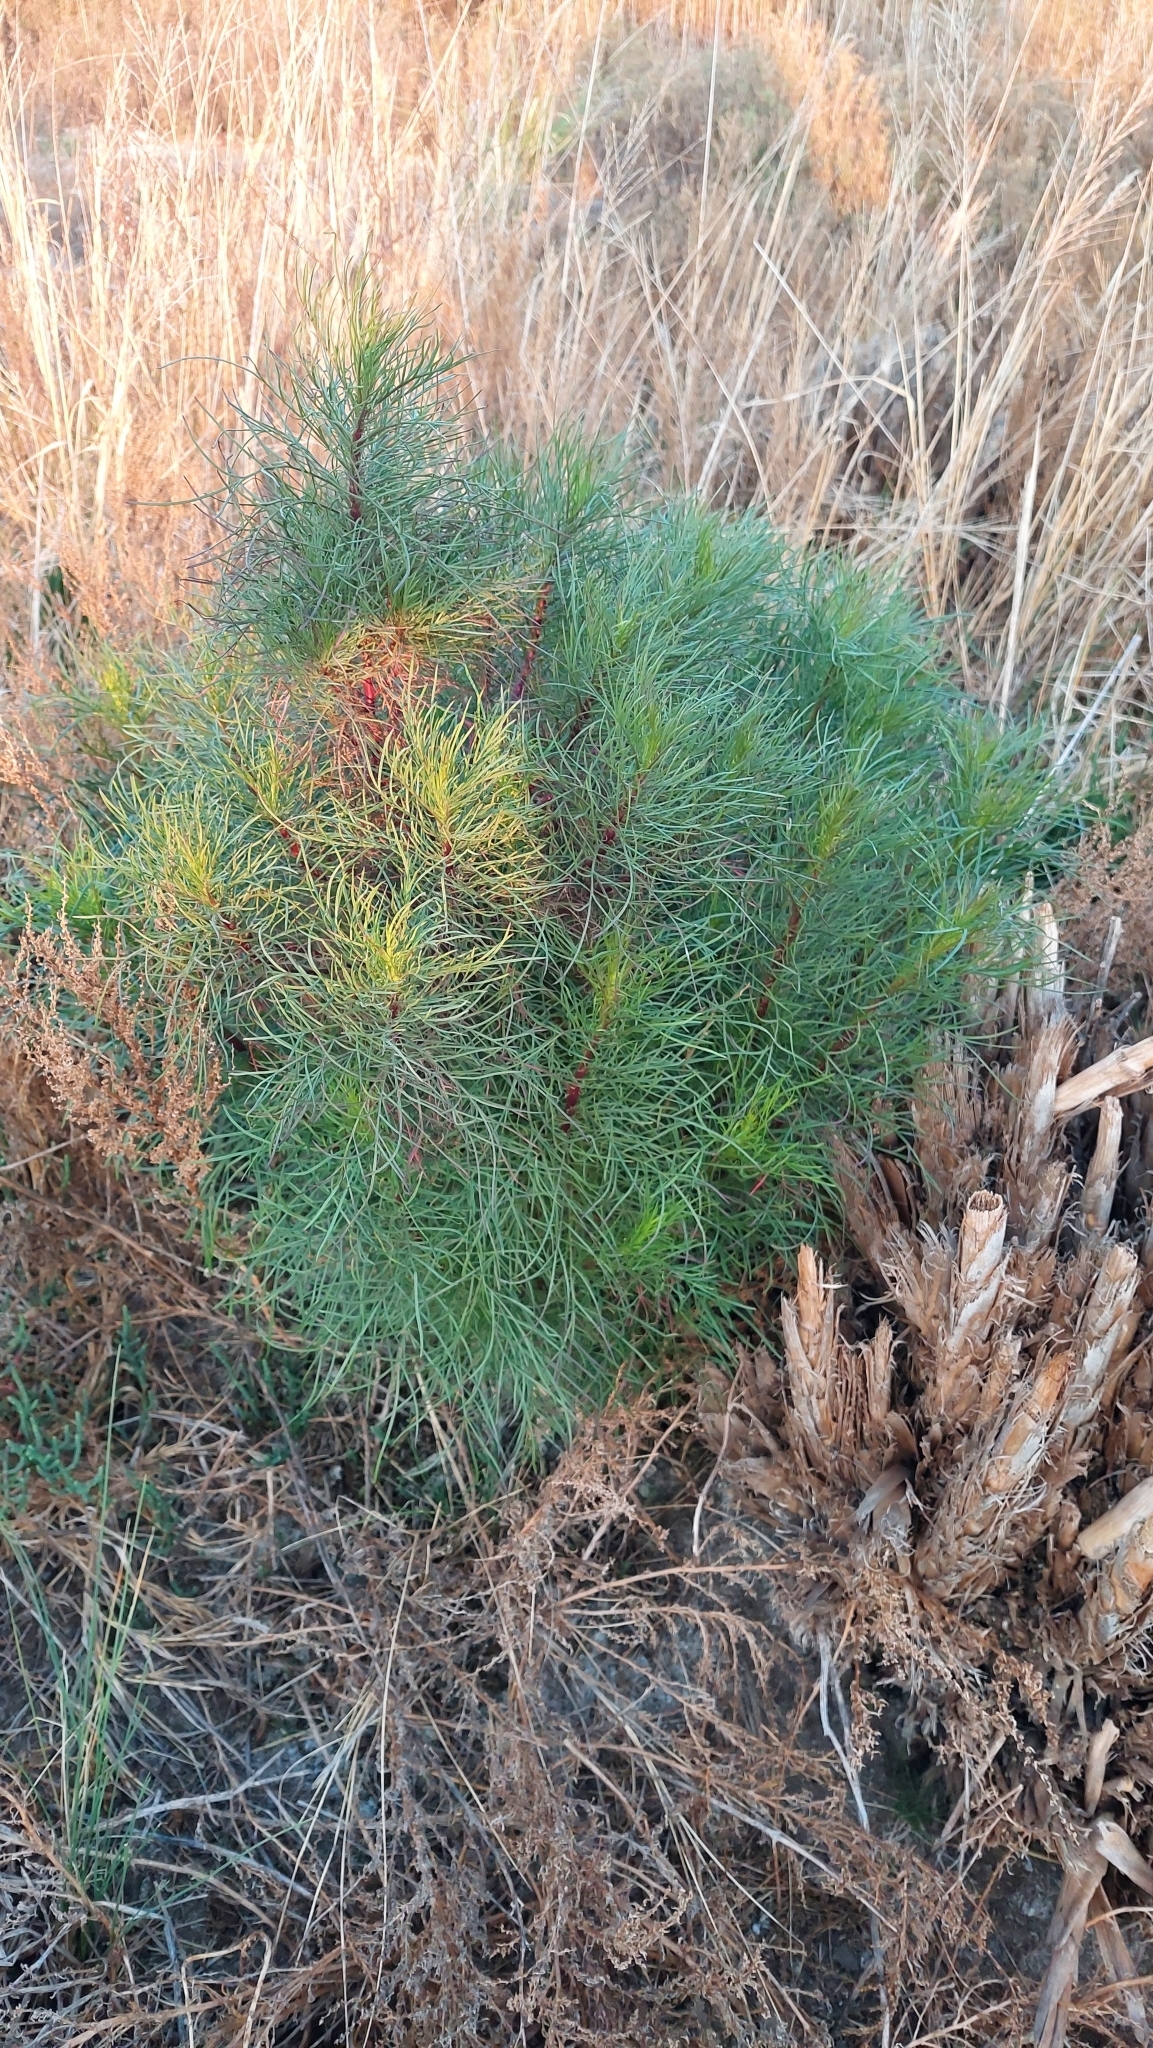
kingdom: Plantae
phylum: Tracheophyta
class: Magnoliopsida
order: Asterales
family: Asteraceae
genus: Senecio
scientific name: Senecio pampeanus
